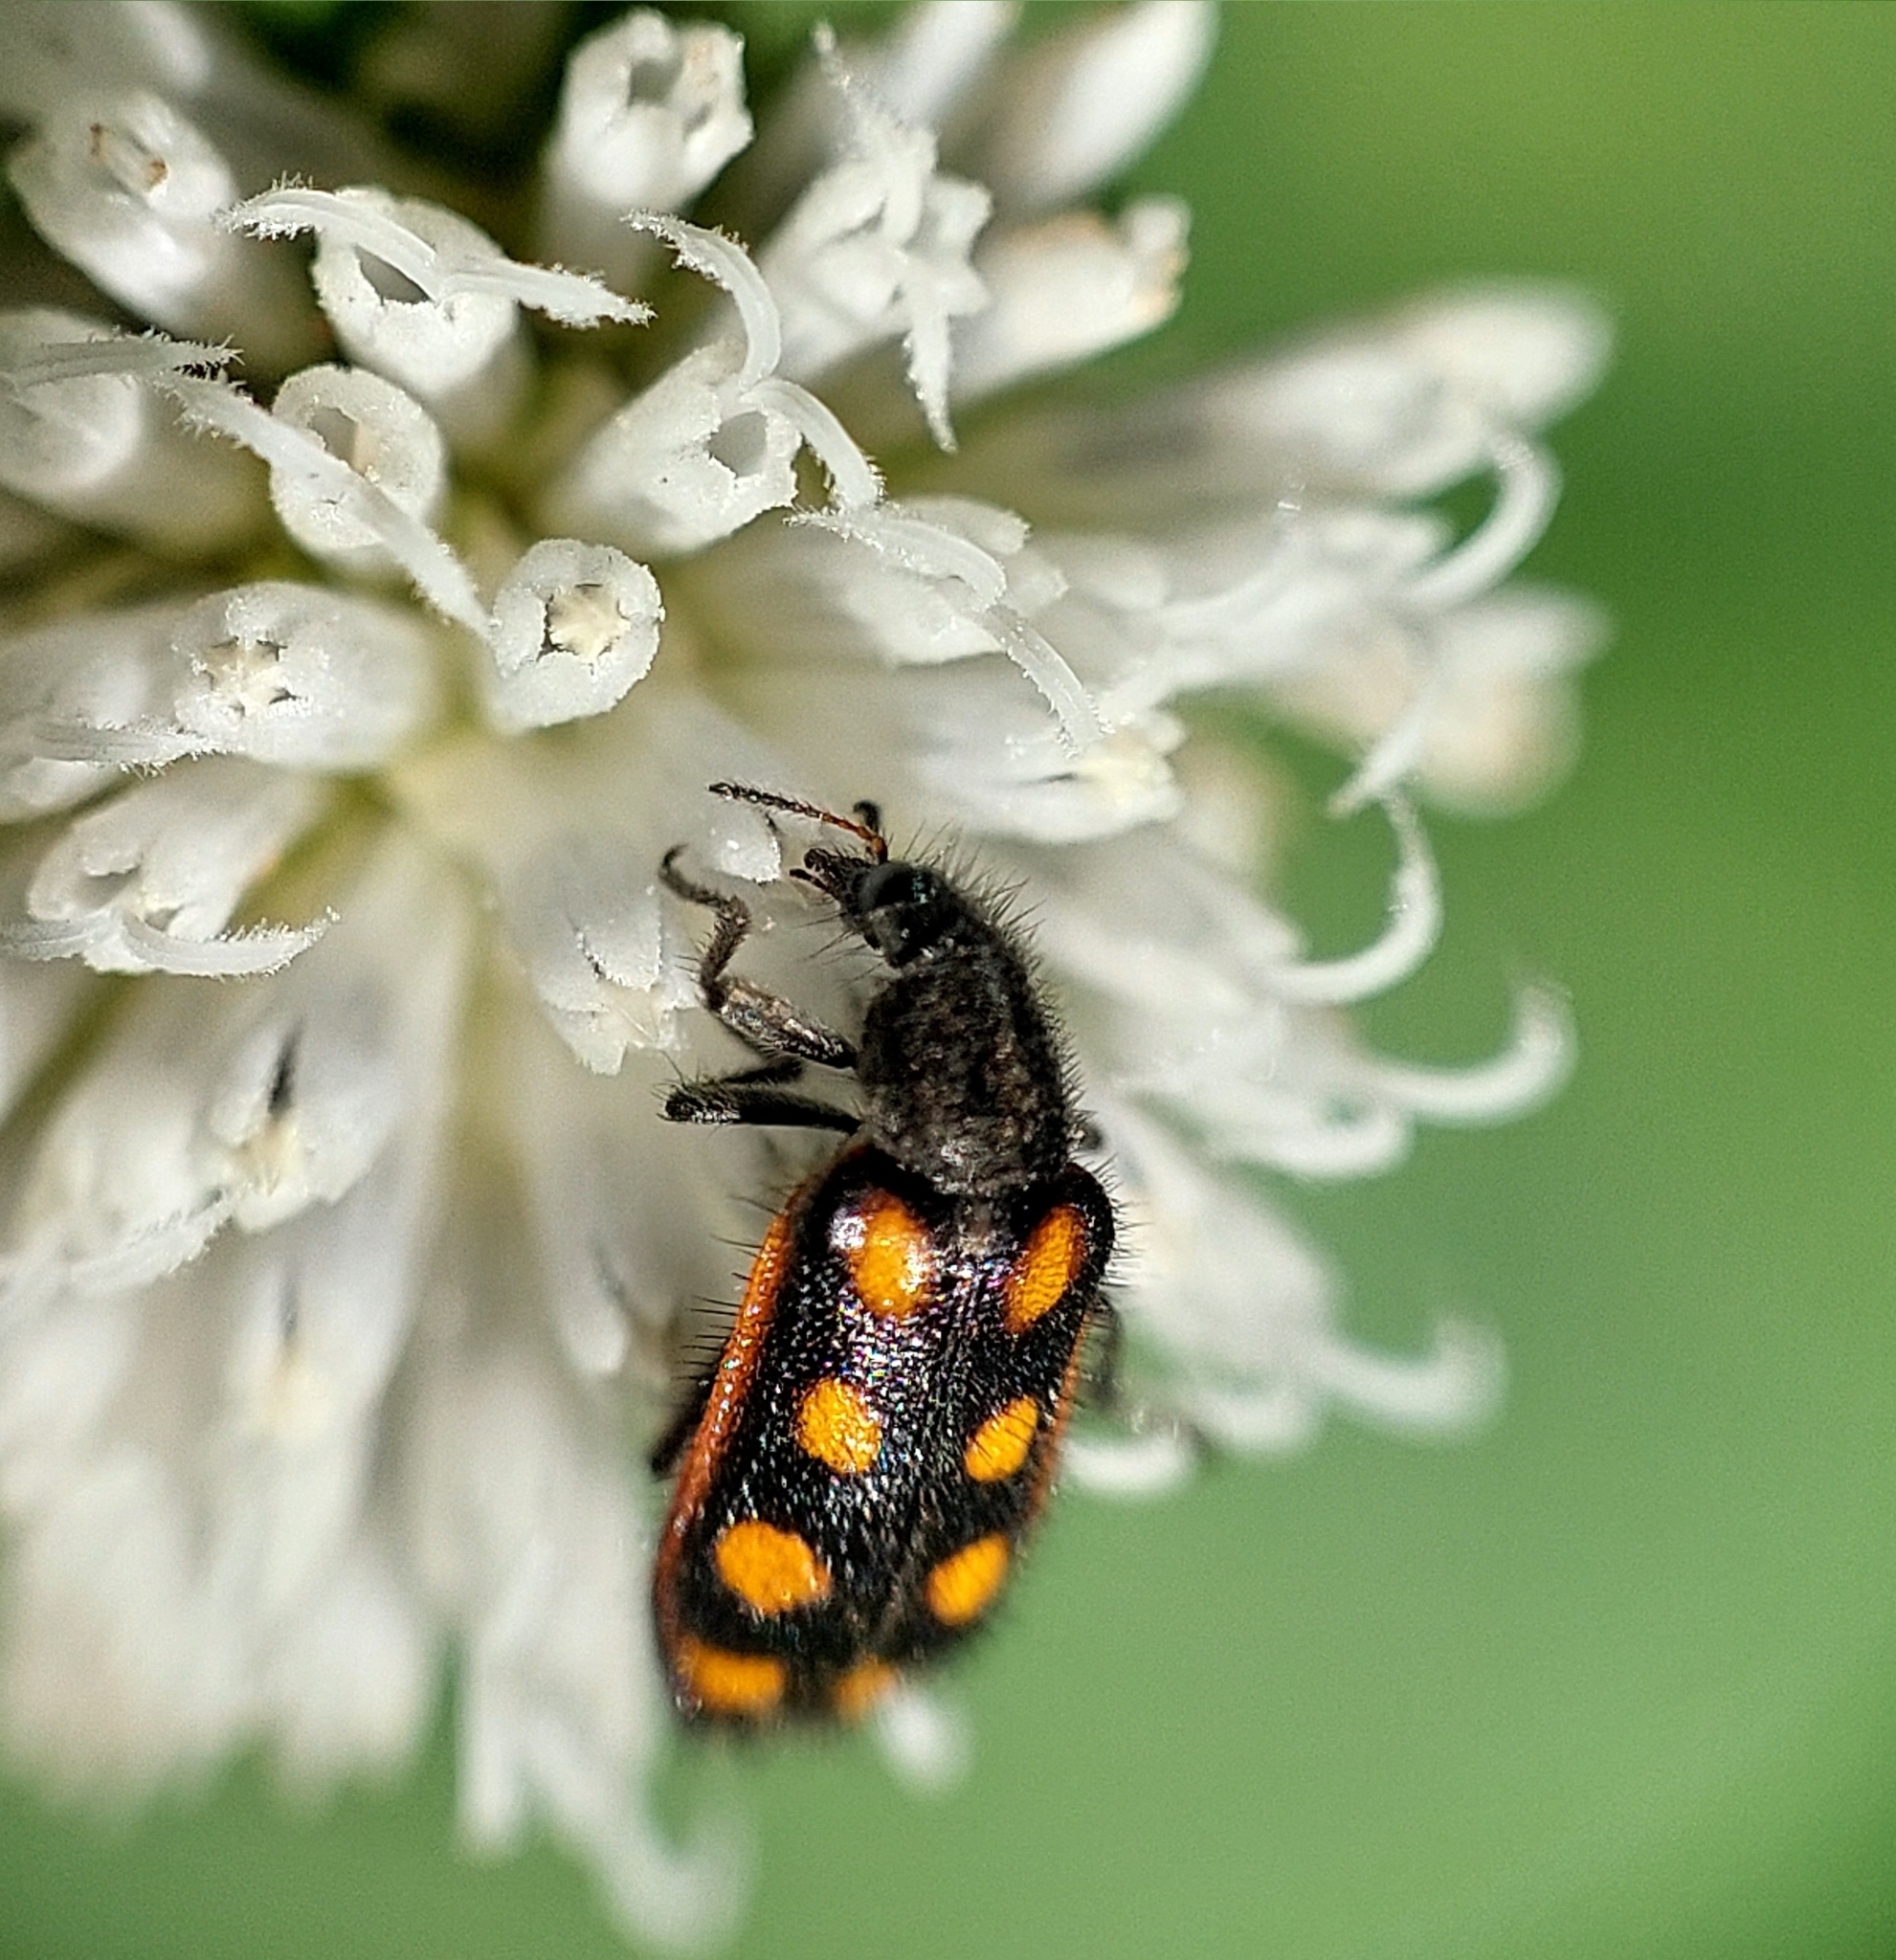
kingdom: Animalia
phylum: Arthropoda
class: Insecta
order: Coleoptera
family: Melyridae
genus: Astylus
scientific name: Astylus
